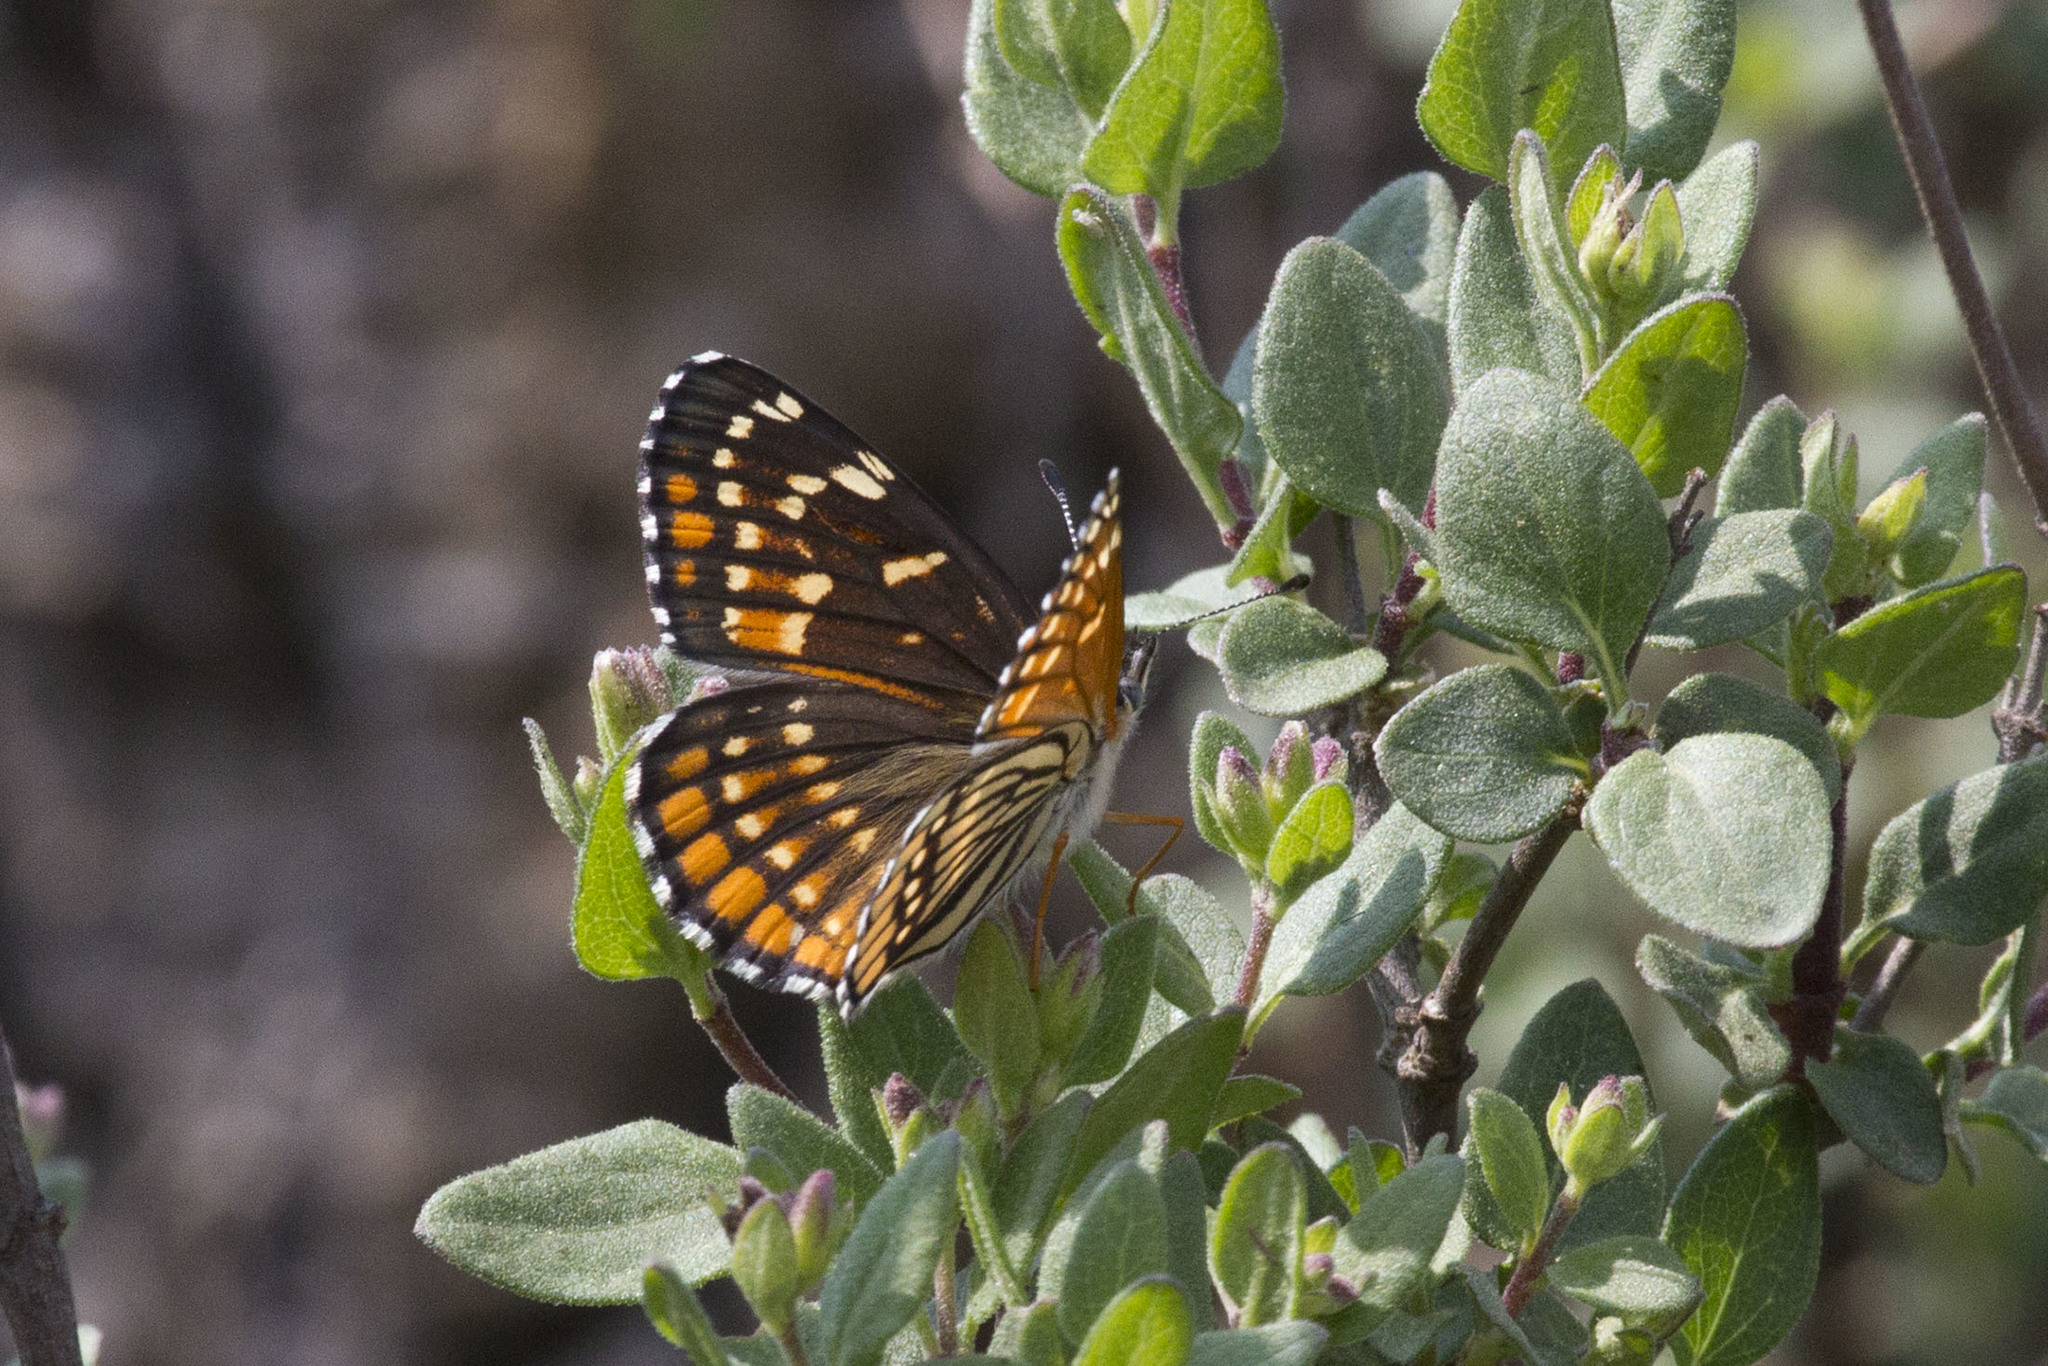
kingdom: Animalia
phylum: Arthropoda
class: Insecta
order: Lepidoptera
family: Nymphalidae
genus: Thessalia
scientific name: Thessalia leanira
